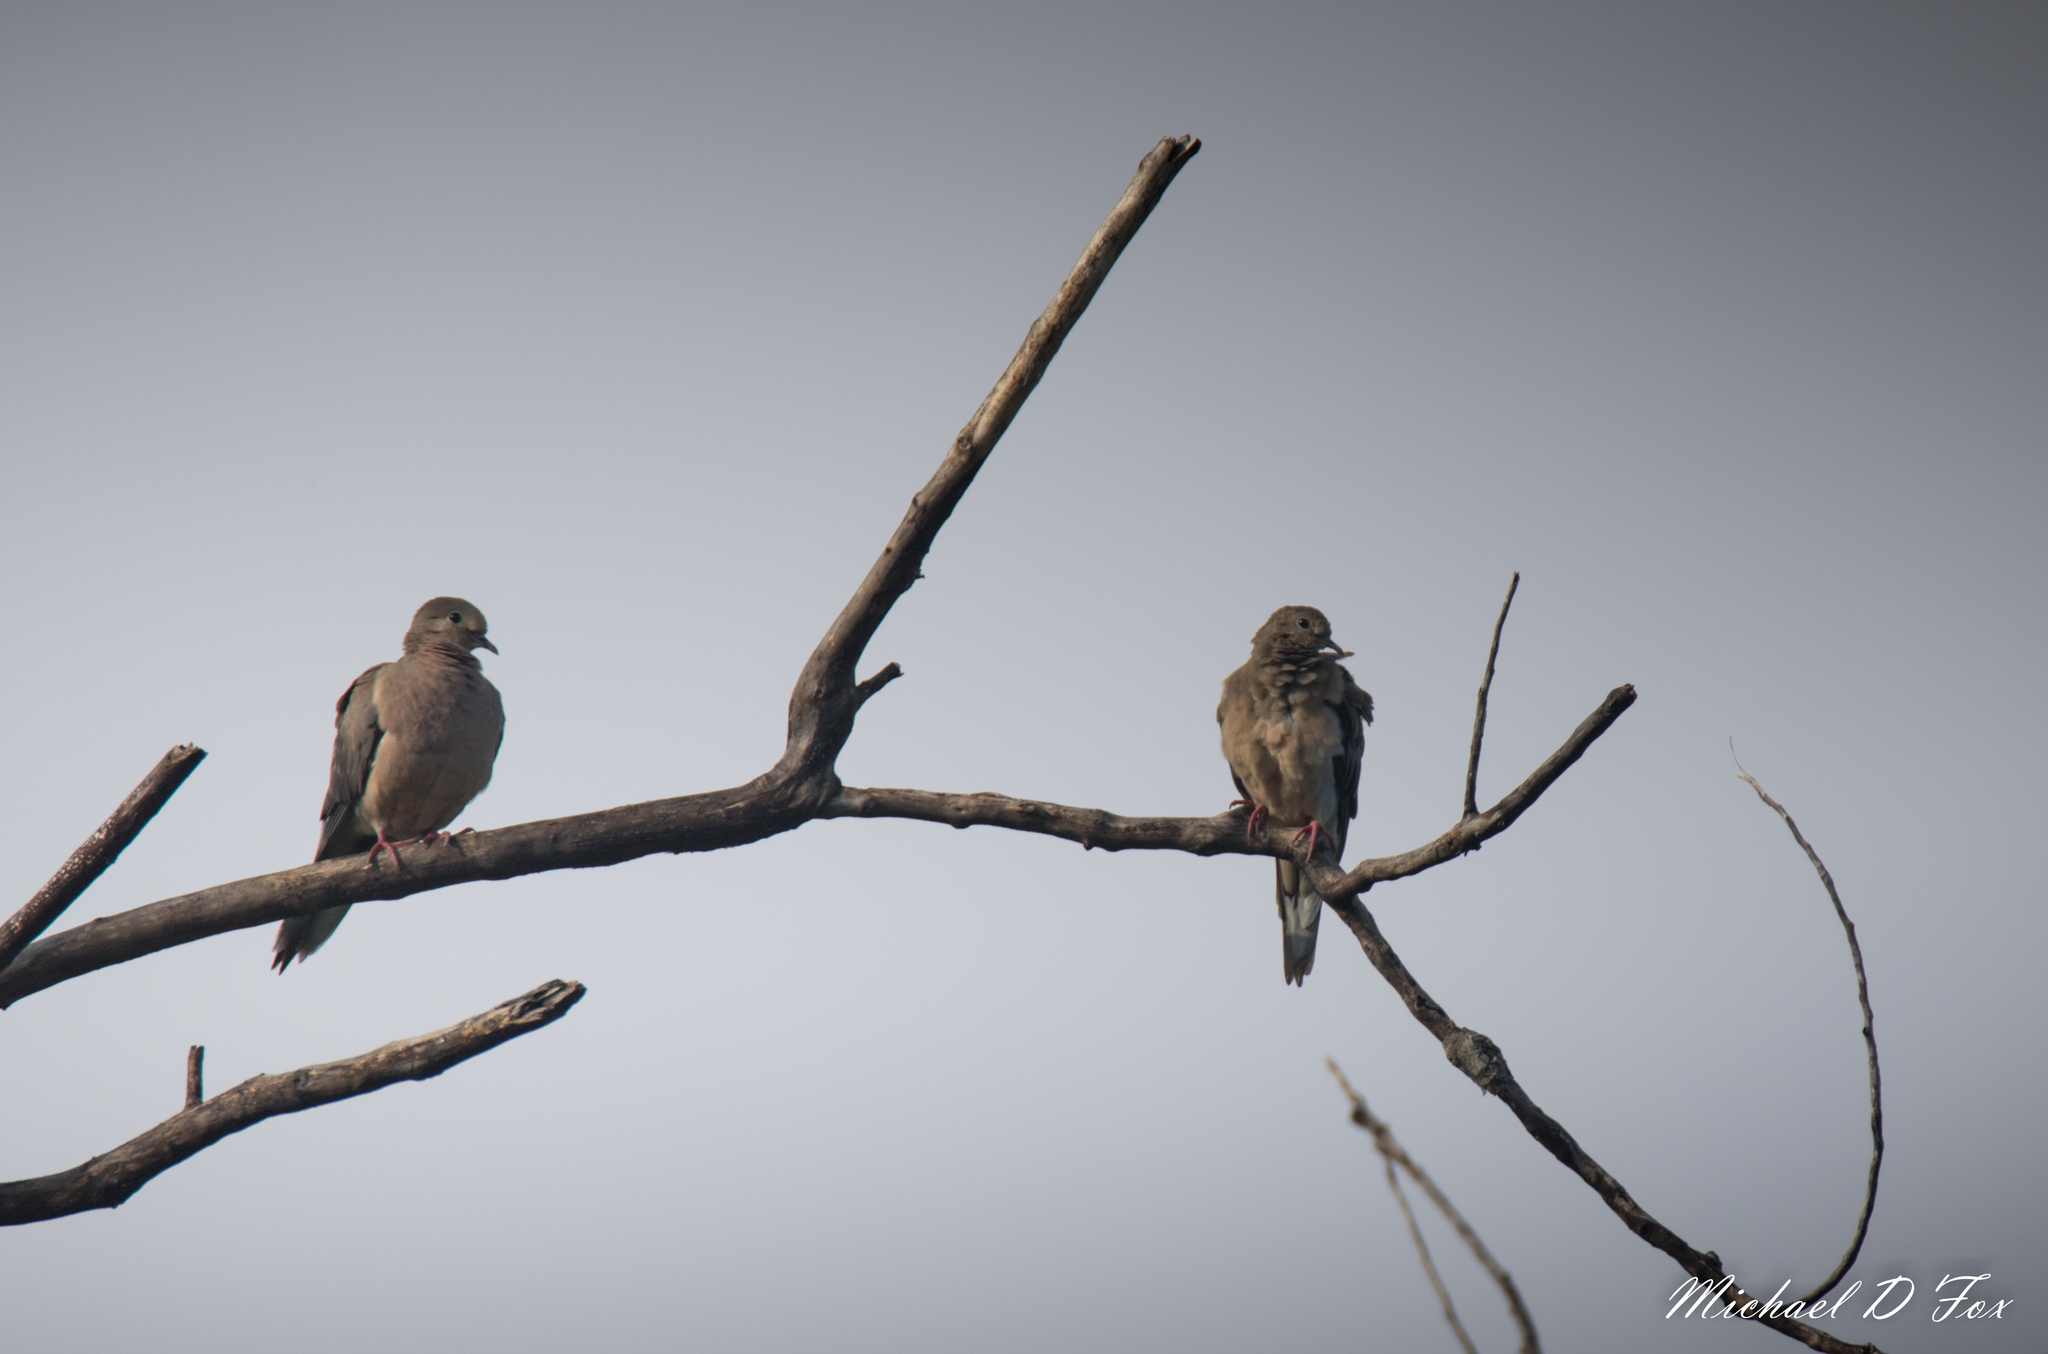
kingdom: Animalia
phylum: Chordata
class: Aves
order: Columbiformes
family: Columbidae
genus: Zenaida
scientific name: Zenaida macroura
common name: Mourning dove
